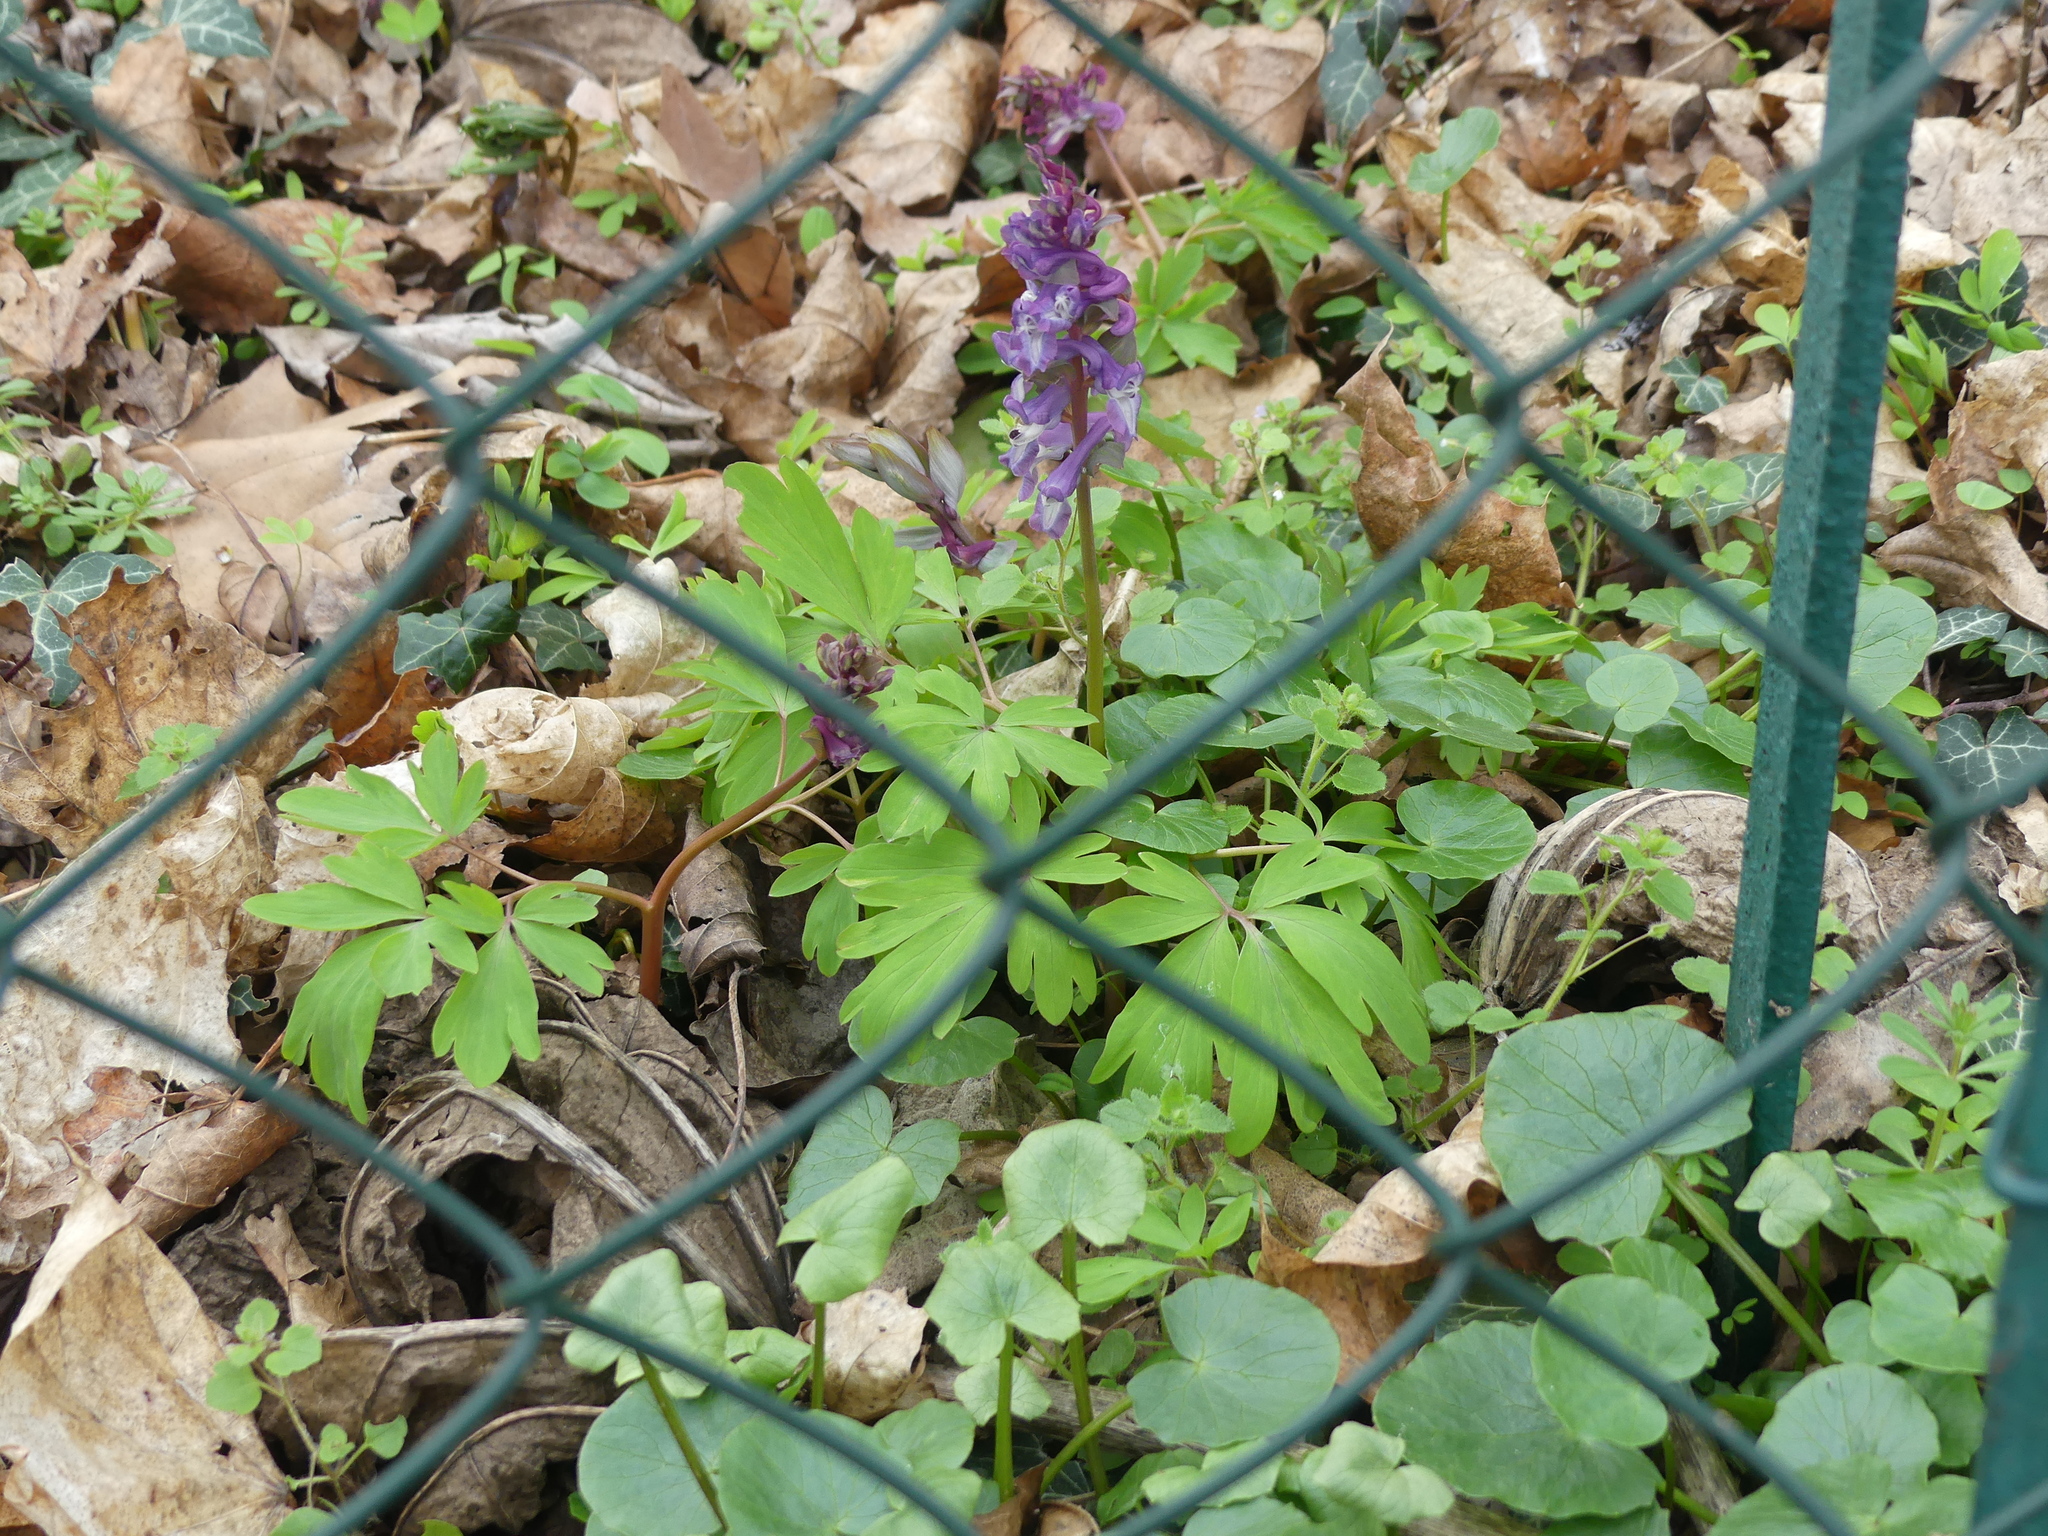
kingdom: Plantae
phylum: Tracheophyta
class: Magnoliopsida
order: Ranunculales
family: Papaveraceae
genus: Corydalis
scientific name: Corydalis cava
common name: Hollowroot
